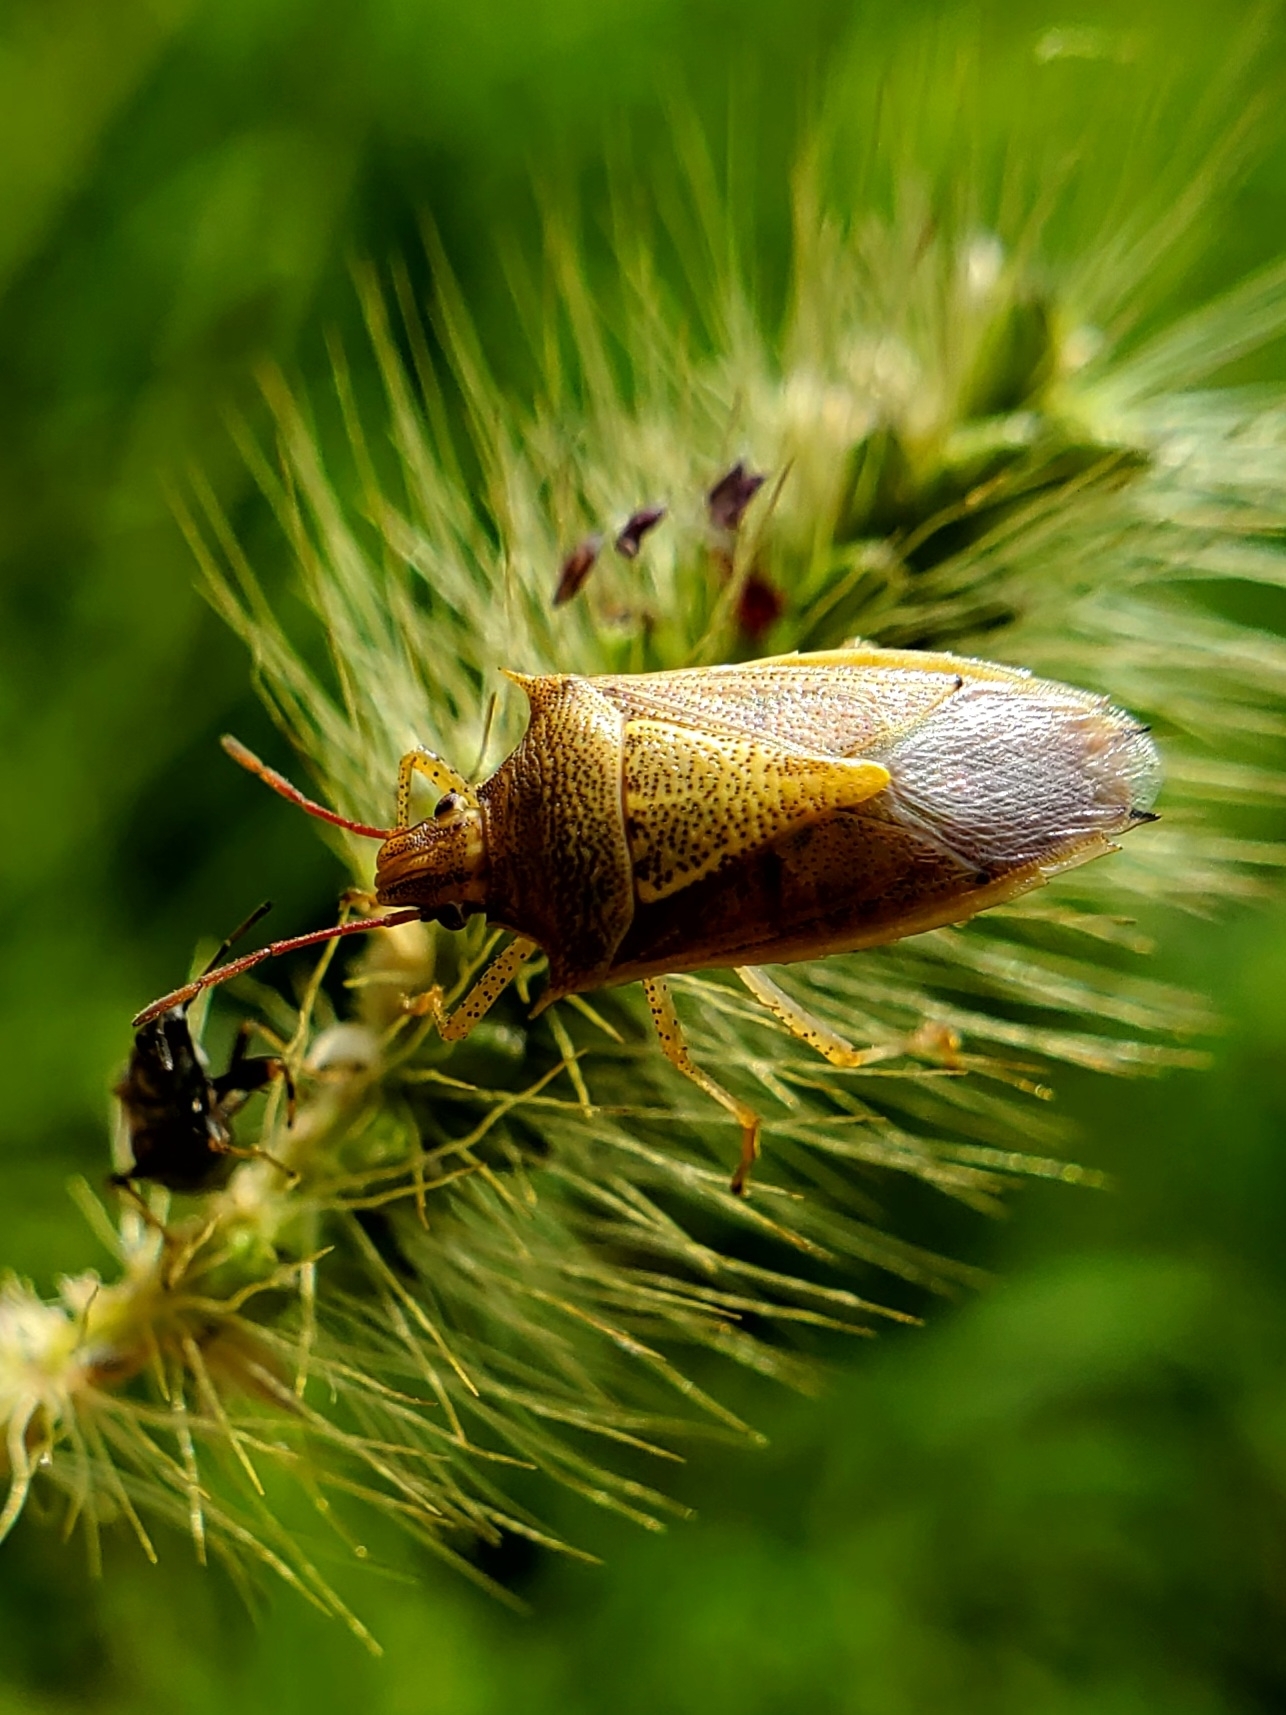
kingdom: Animalia
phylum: Arthropoda
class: Insecta
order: Hemiptera
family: Pentatomidae
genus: Oebalus
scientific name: Oebalus pugnax
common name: Rice stink bug
